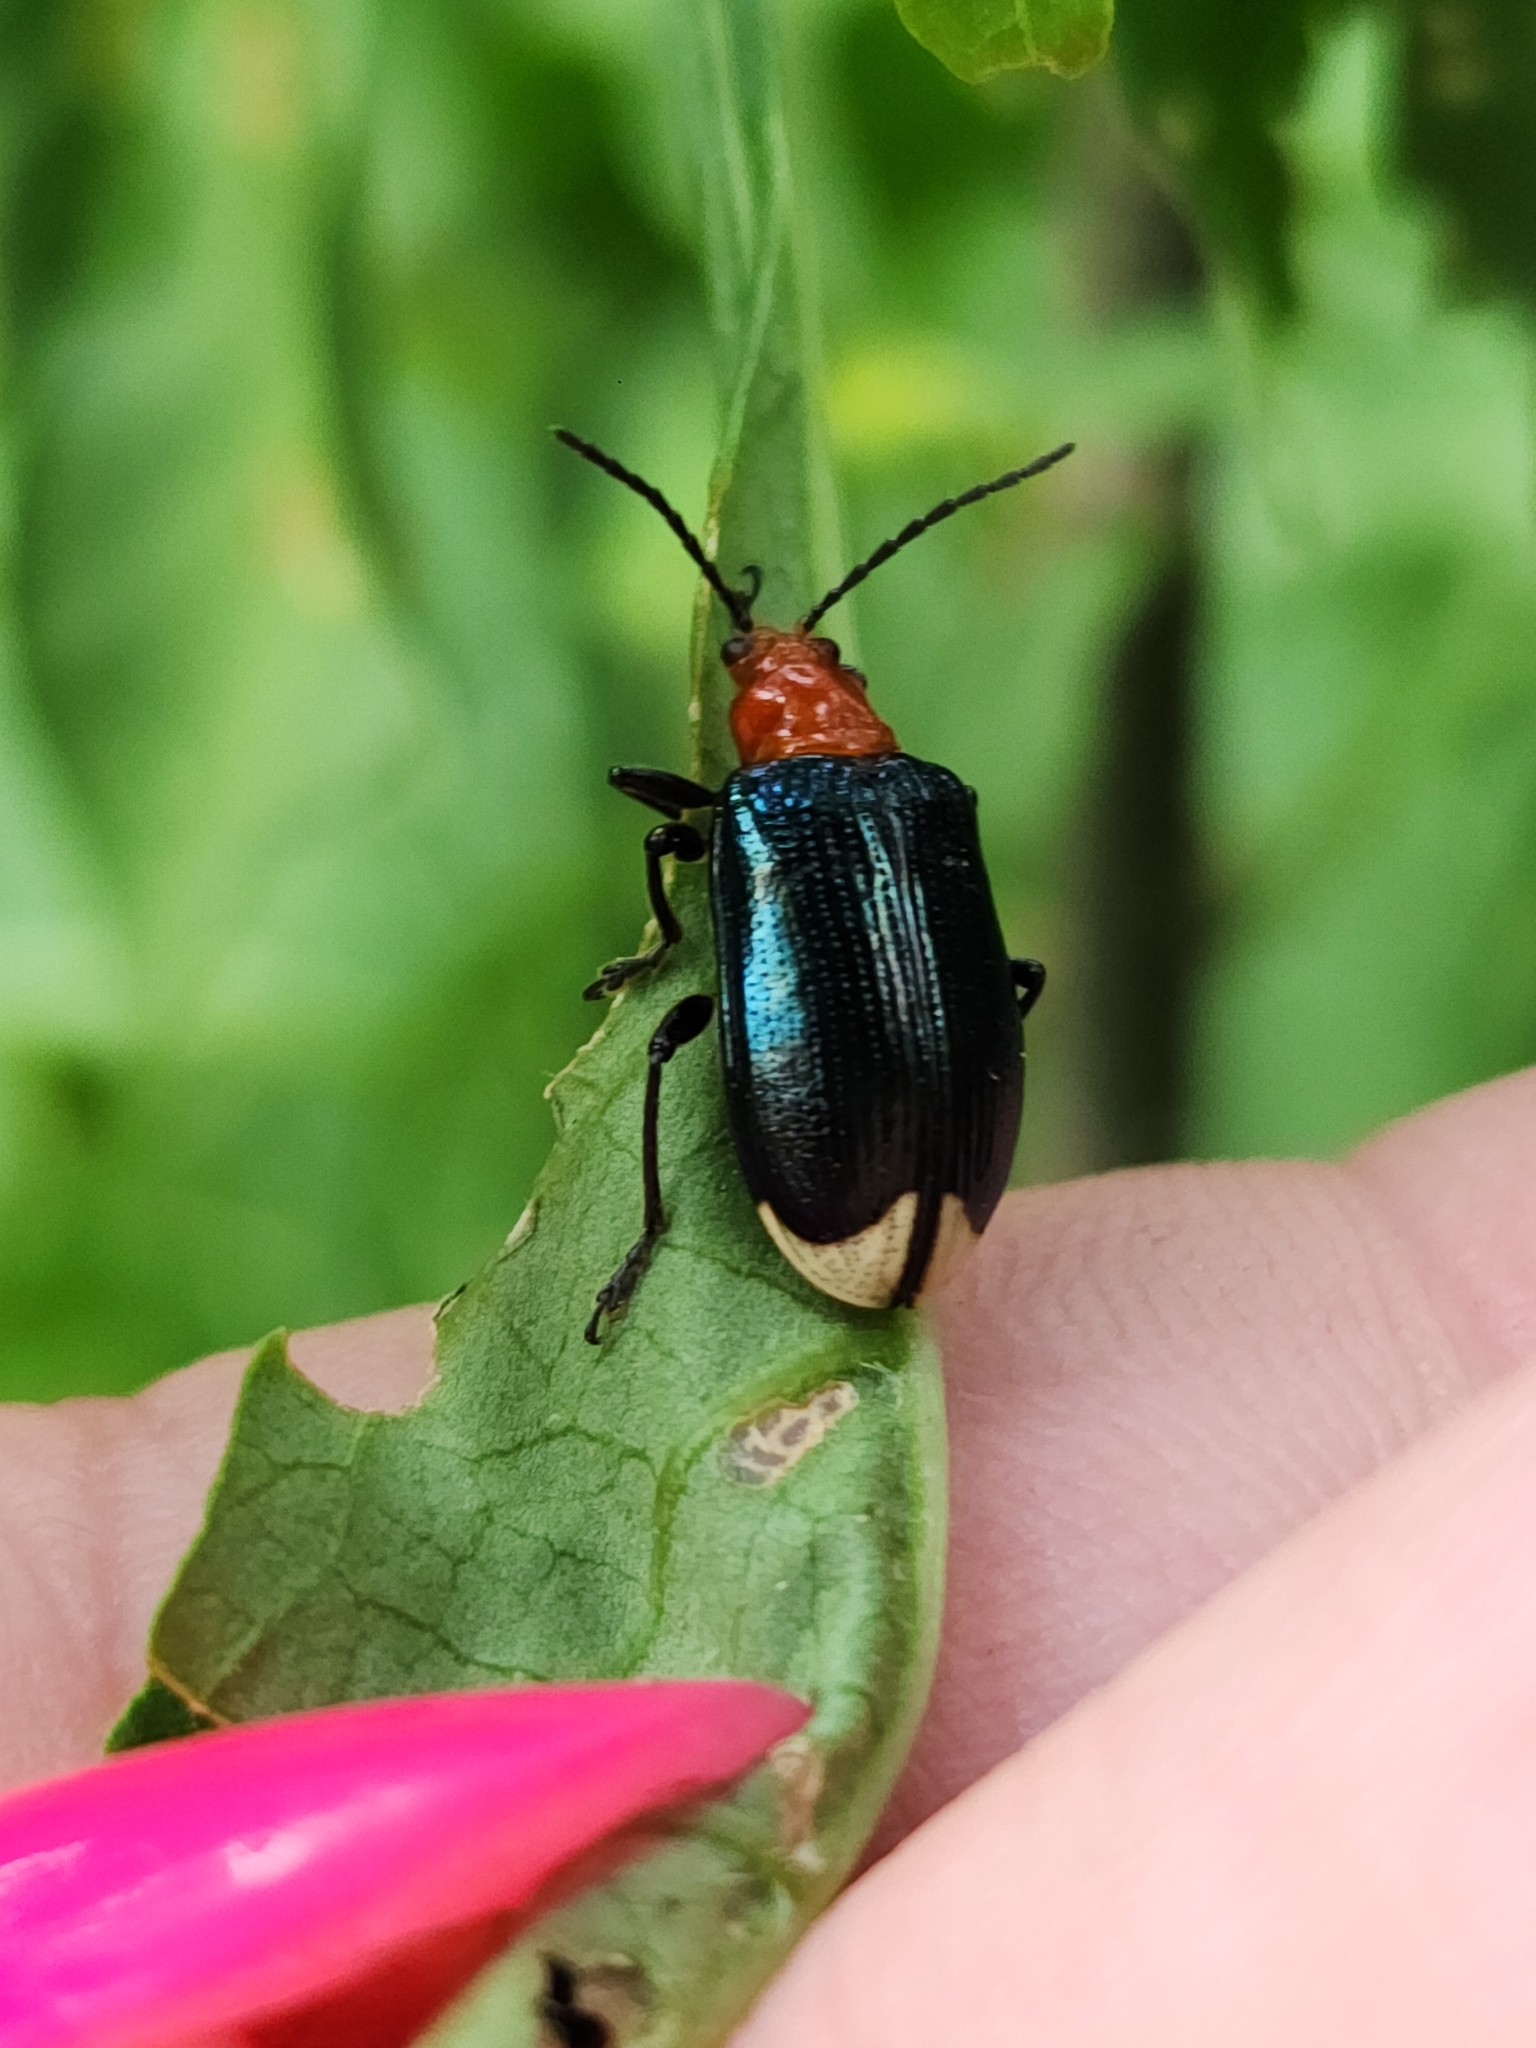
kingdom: Animalia
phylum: Arthropoda
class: Insecta
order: Coleoptera
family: Chrysomelidae
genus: Stolas
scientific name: Stolas chalybaea
